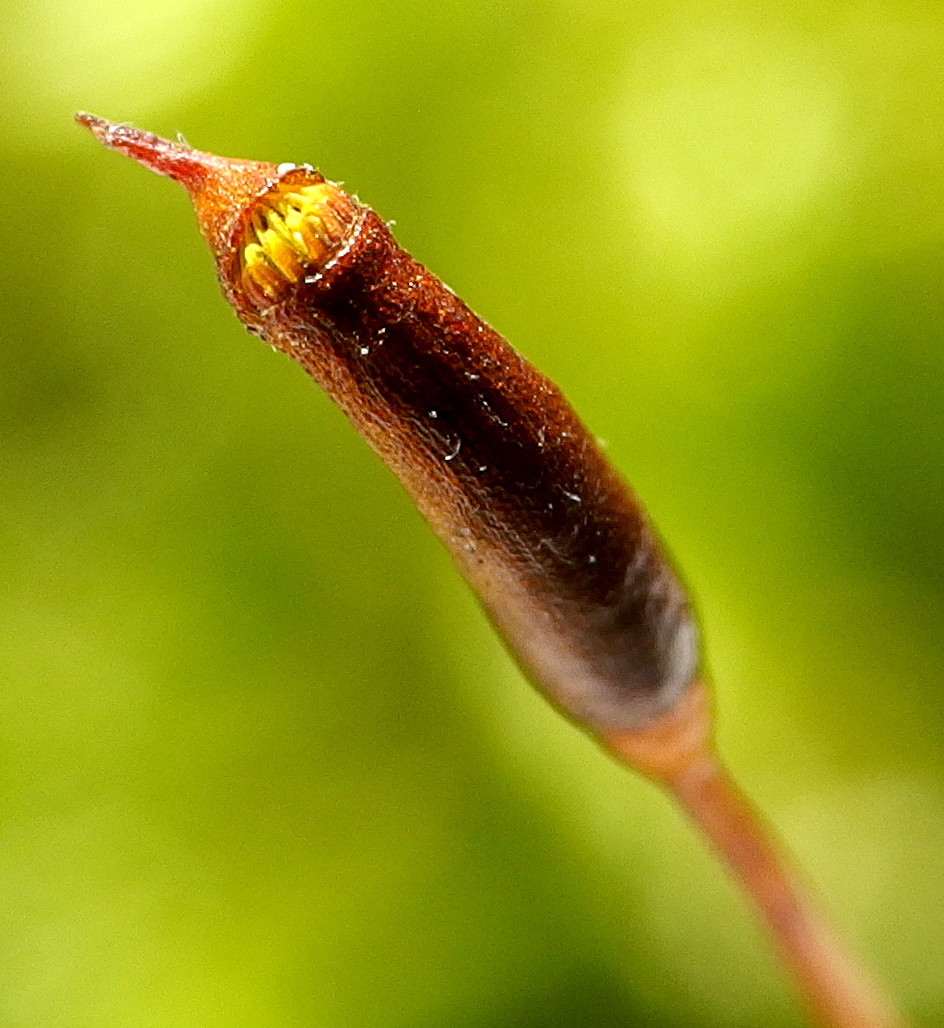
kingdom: Plantae
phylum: Bryophyta
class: Bryopsida
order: Hypnales
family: Hypnaceae
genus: Hypnum
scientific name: Hypnum cupressiforme
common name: Cypress-leaved plait-moss
